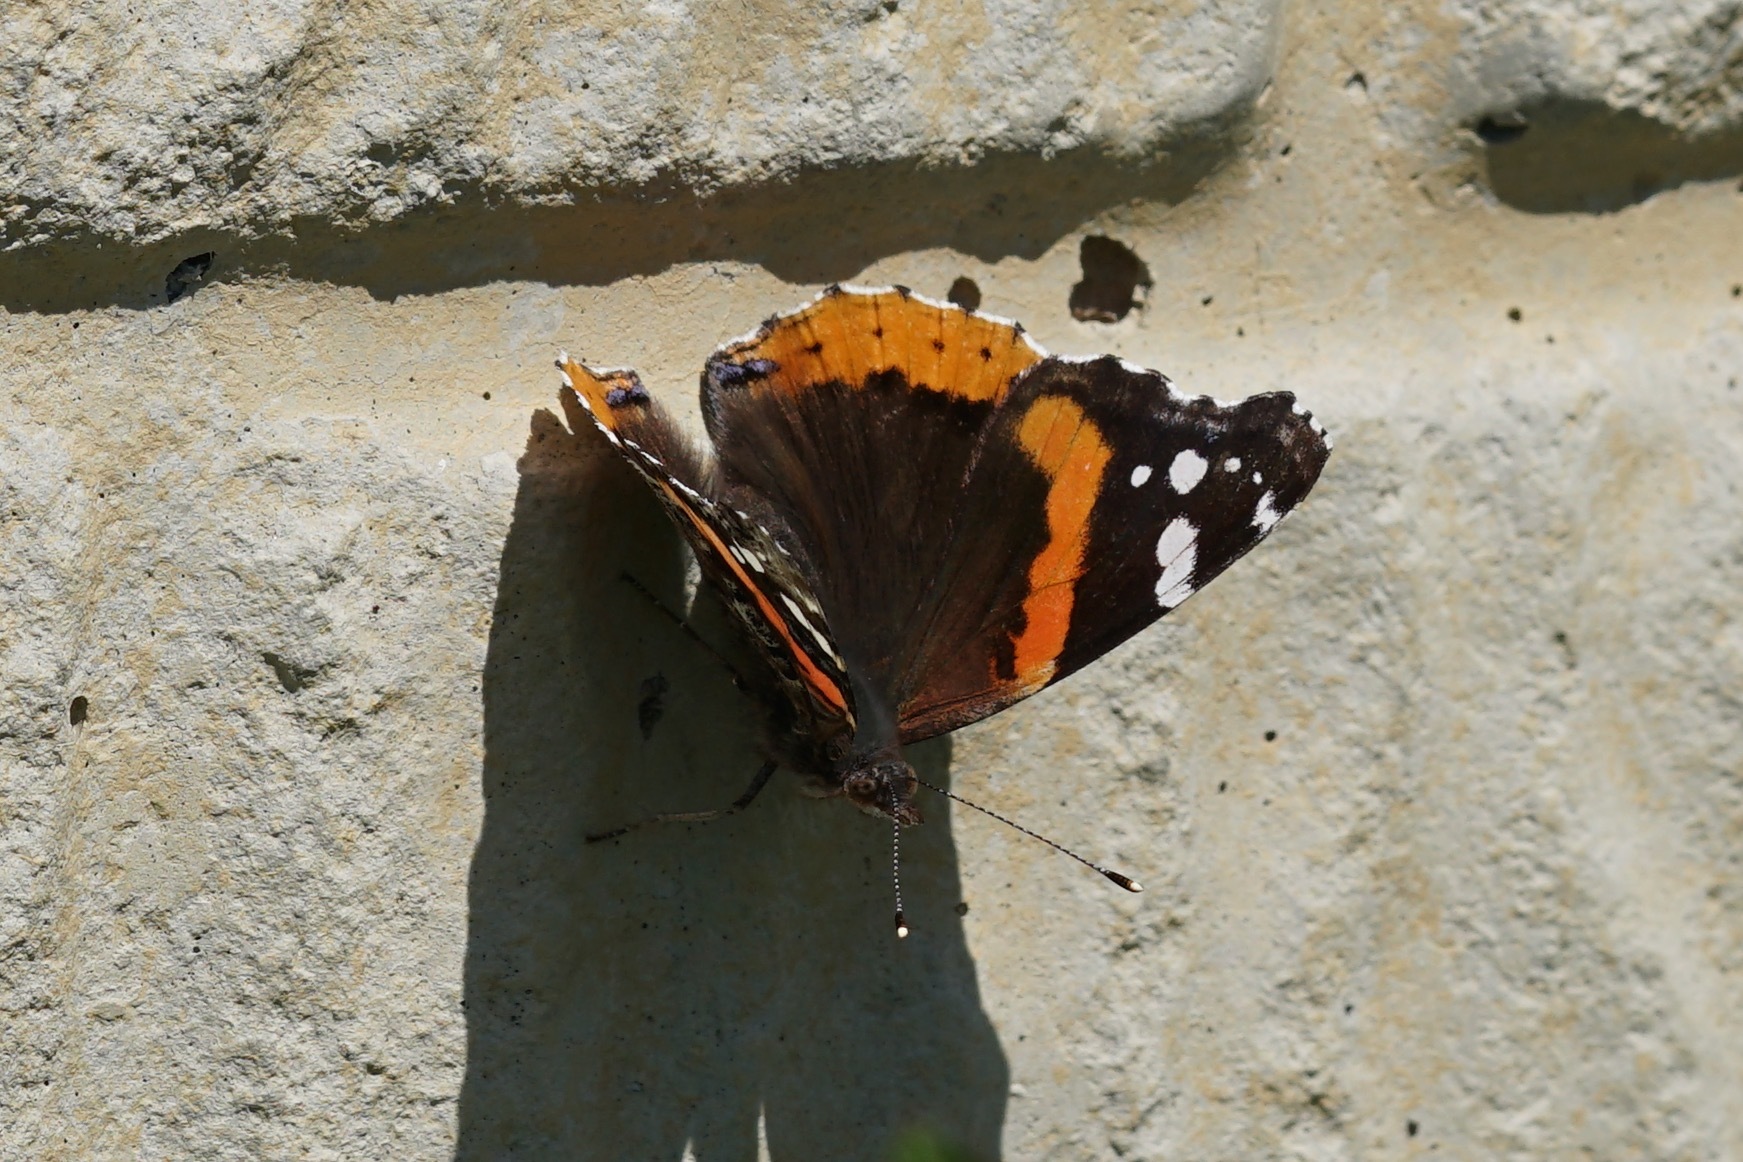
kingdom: Animalia
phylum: Arthropoda
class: Insecta
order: Lepidoptera
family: Nymphalidae
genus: Vanessa
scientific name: Vanessa atalanta
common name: Red admiral
